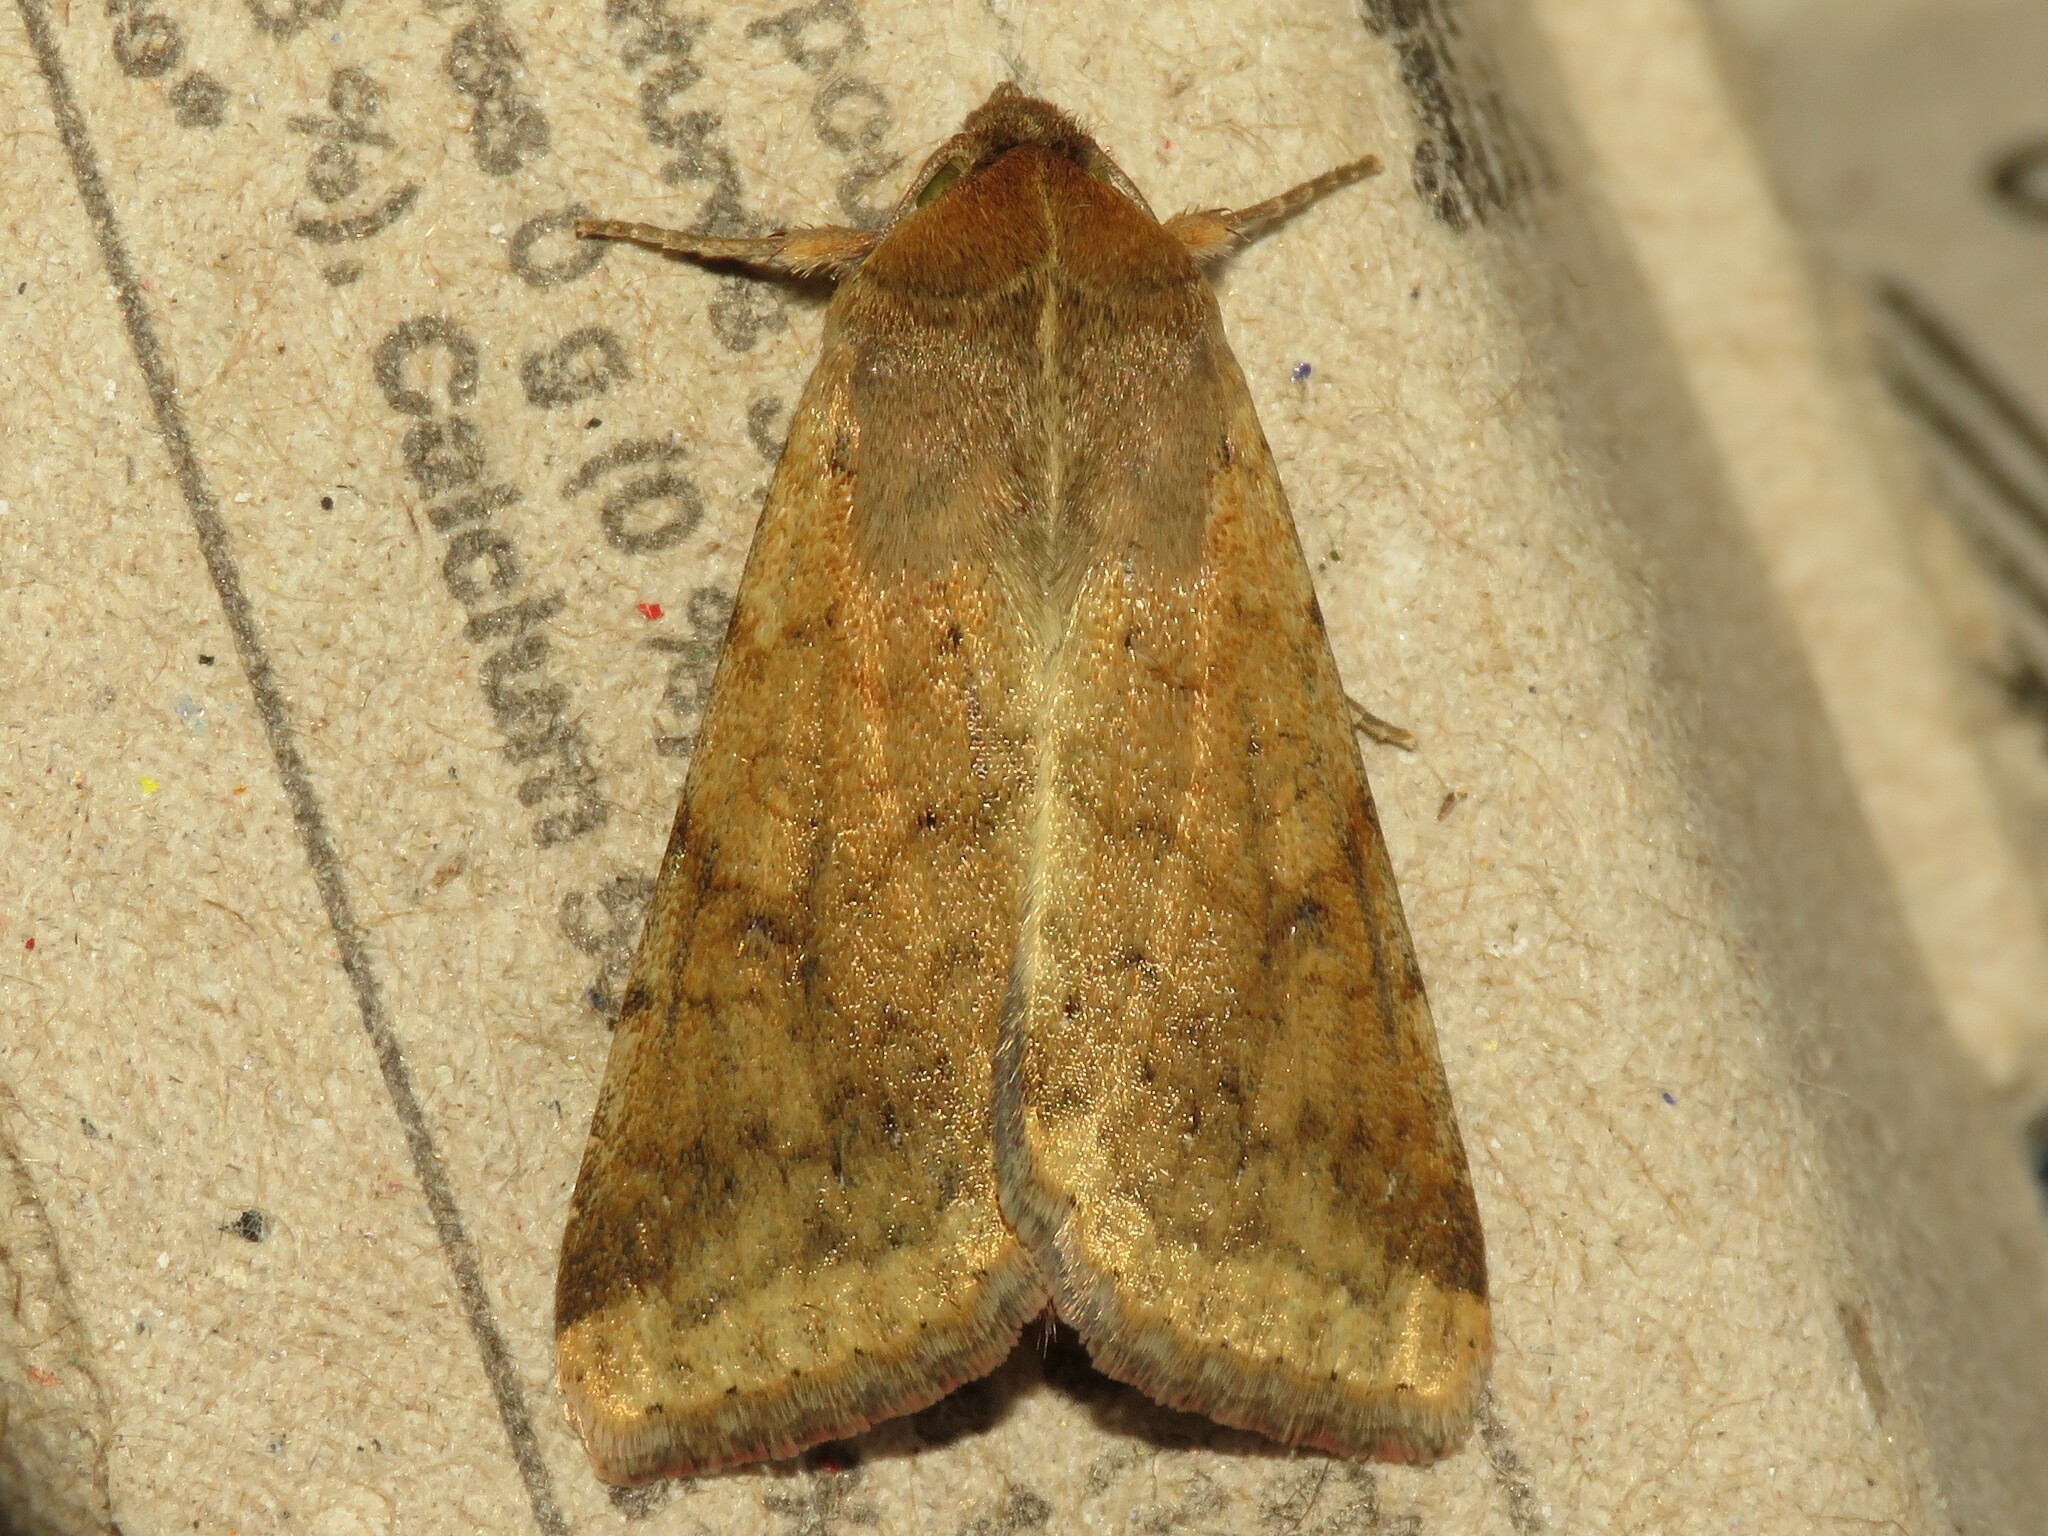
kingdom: Animalia
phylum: Arthropoda
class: Insecta
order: Lepidoptera
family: Noctuidae
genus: Helicoverpa
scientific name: Helicoverpa zea
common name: Bollworm
